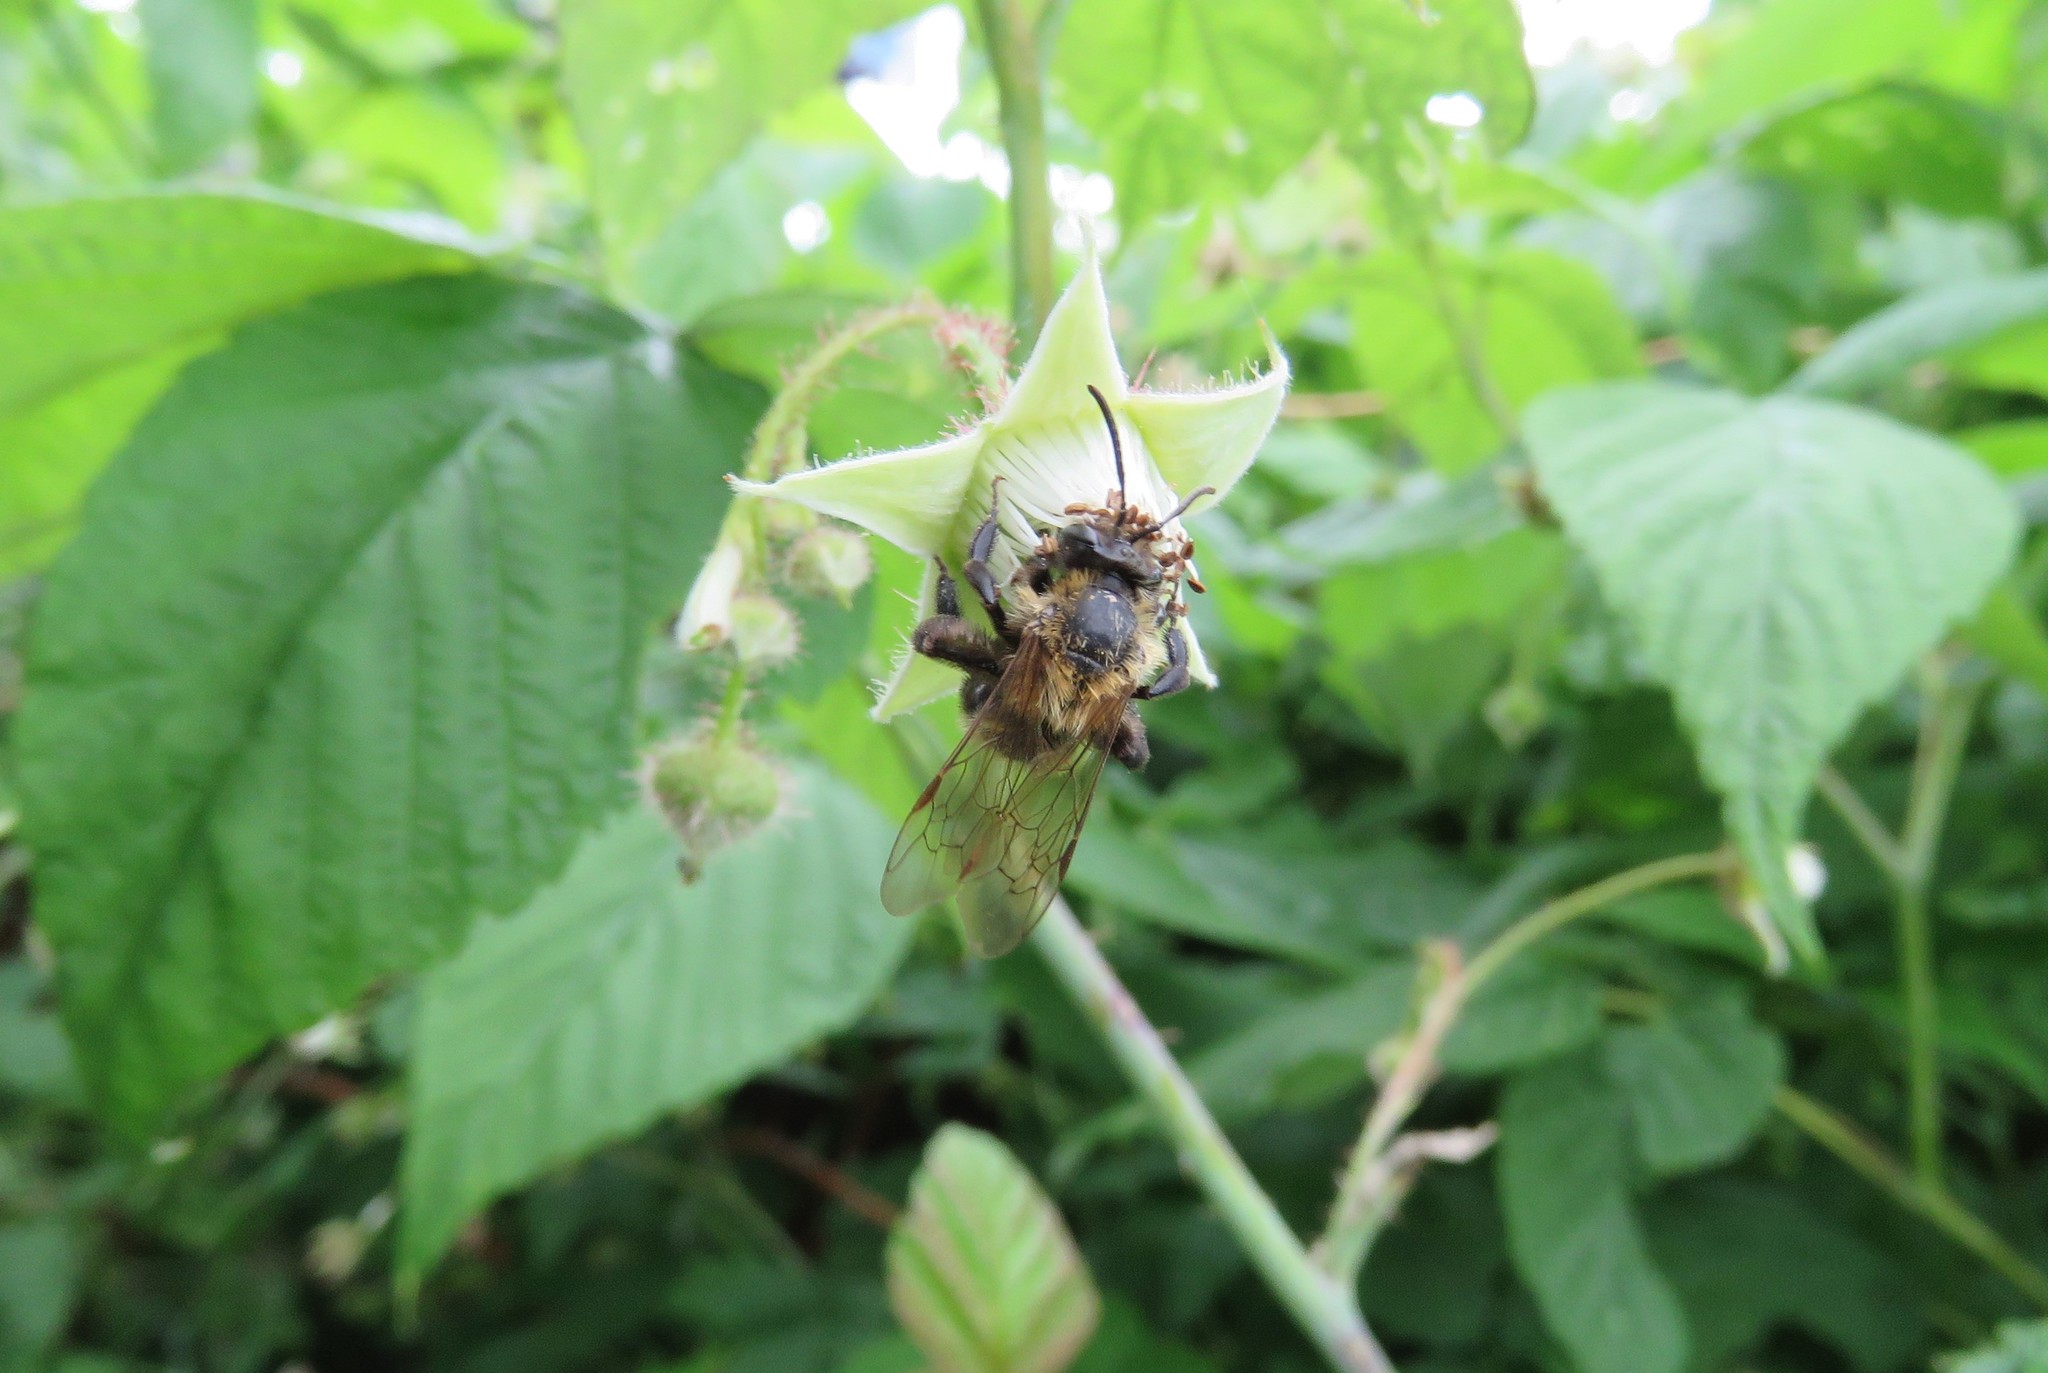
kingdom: Animalia
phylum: Arthropoda
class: Insecta
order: Hymenoptera
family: Andrenidae
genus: Andrena
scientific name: Andrena milwaukeensis
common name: Milwaukee mining bee
